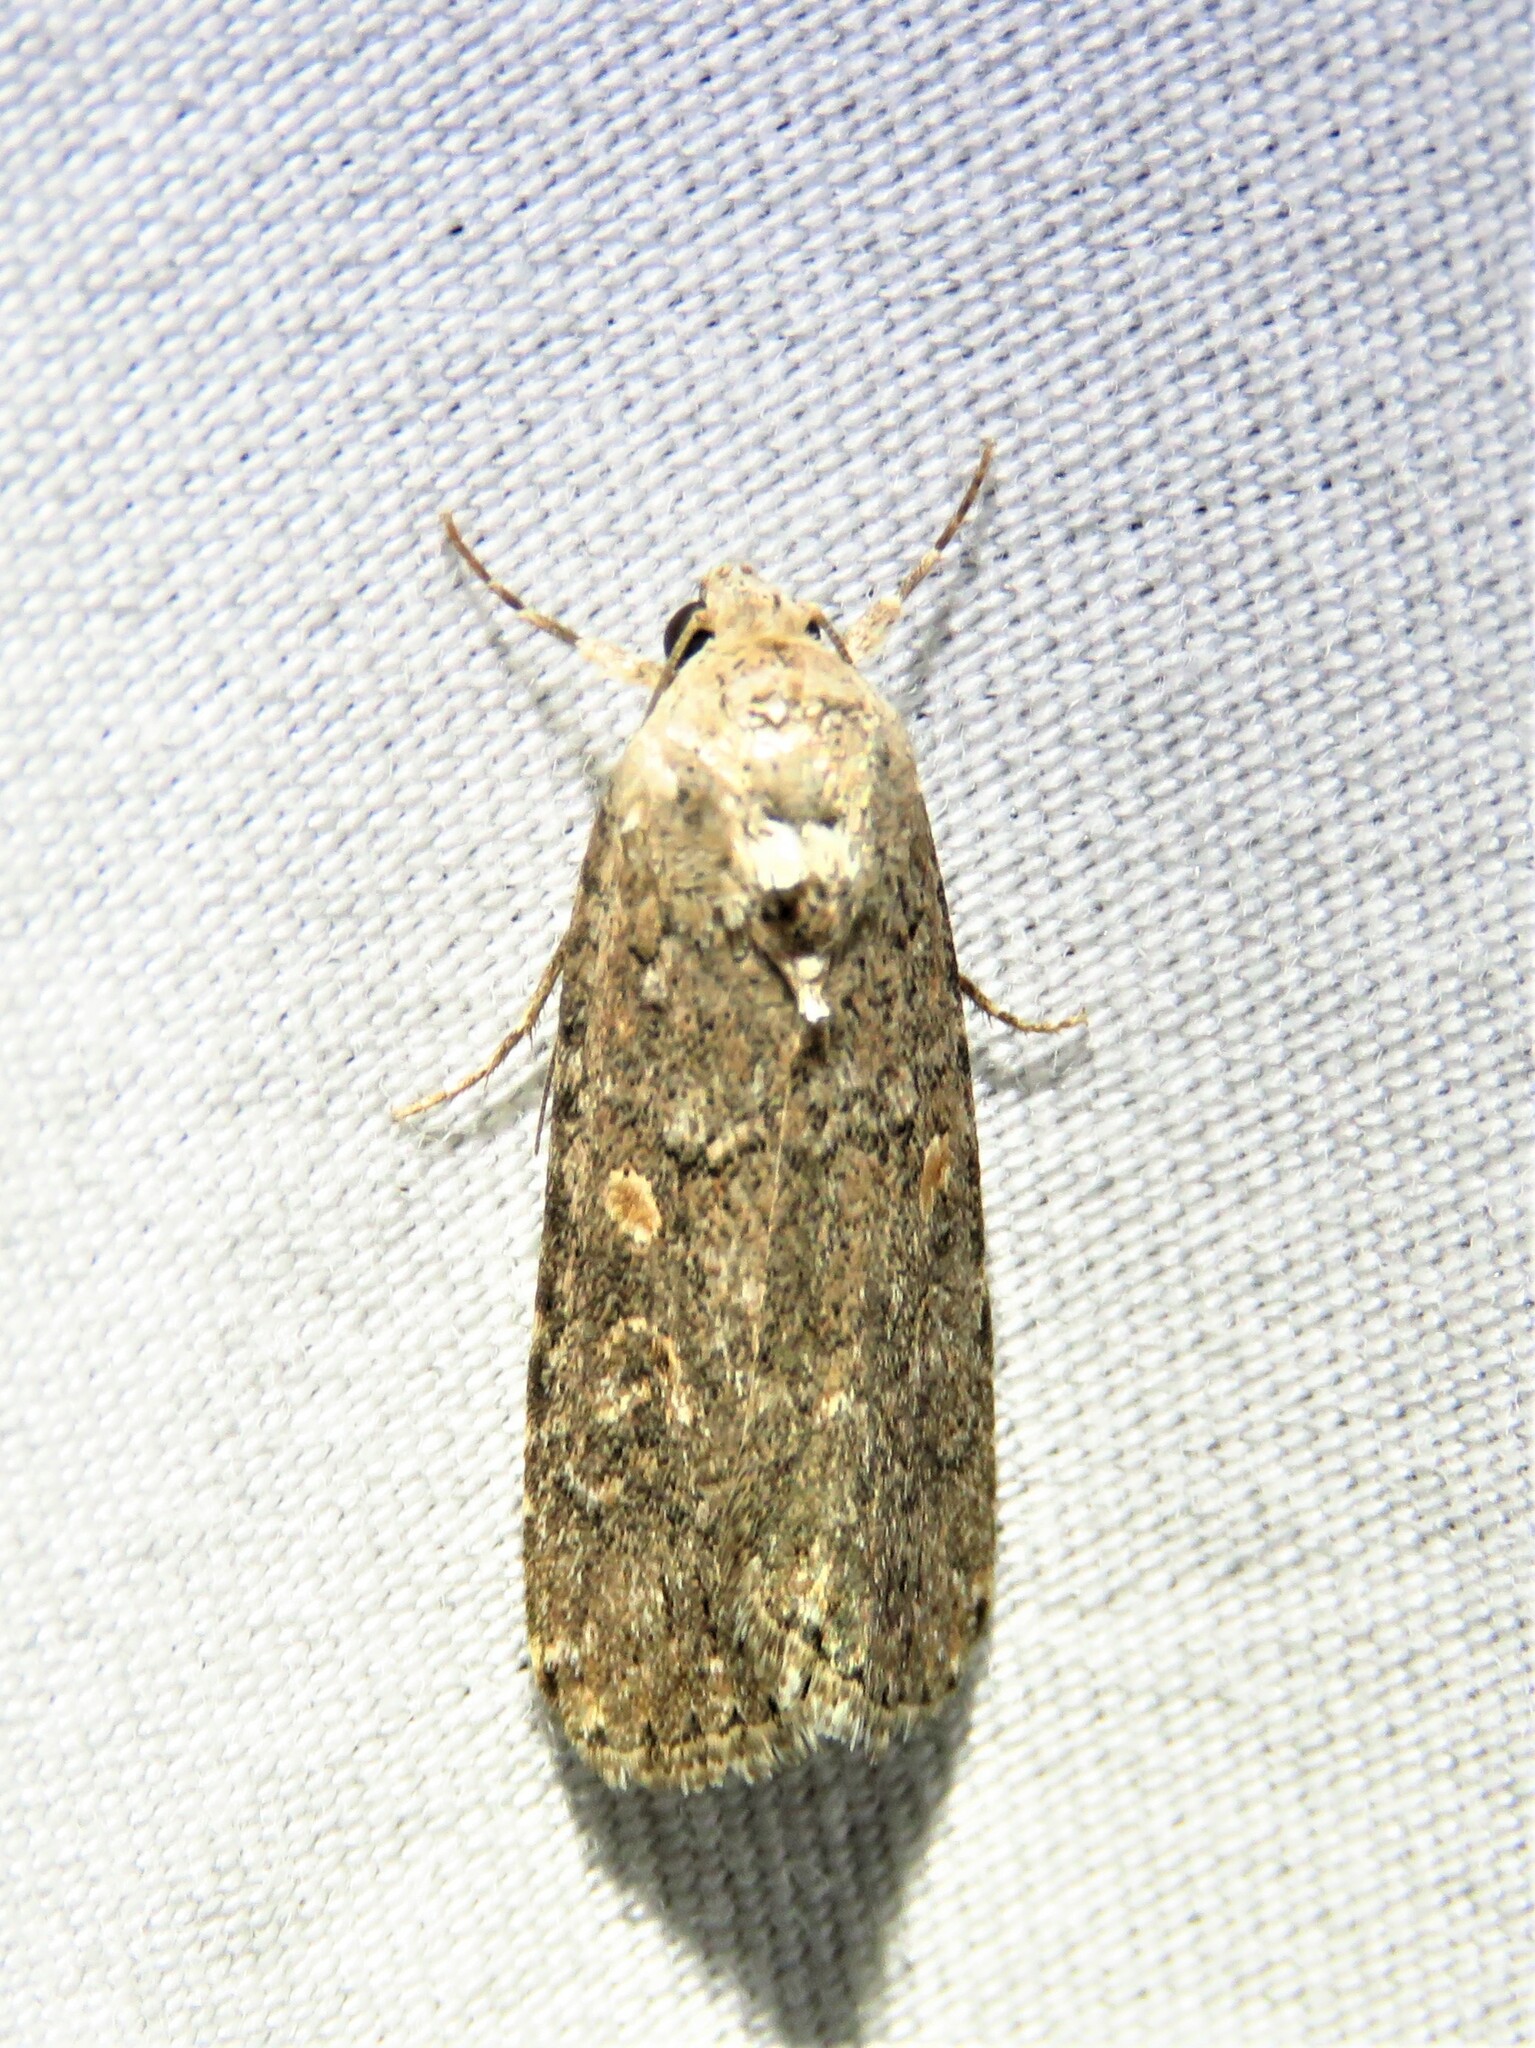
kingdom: Animalia
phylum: Arthropoda
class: Insecta
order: Lepidoptera
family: Noctuidae
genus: Spodoptera
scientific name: Spodoptera exigua
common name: Beet armyworm
